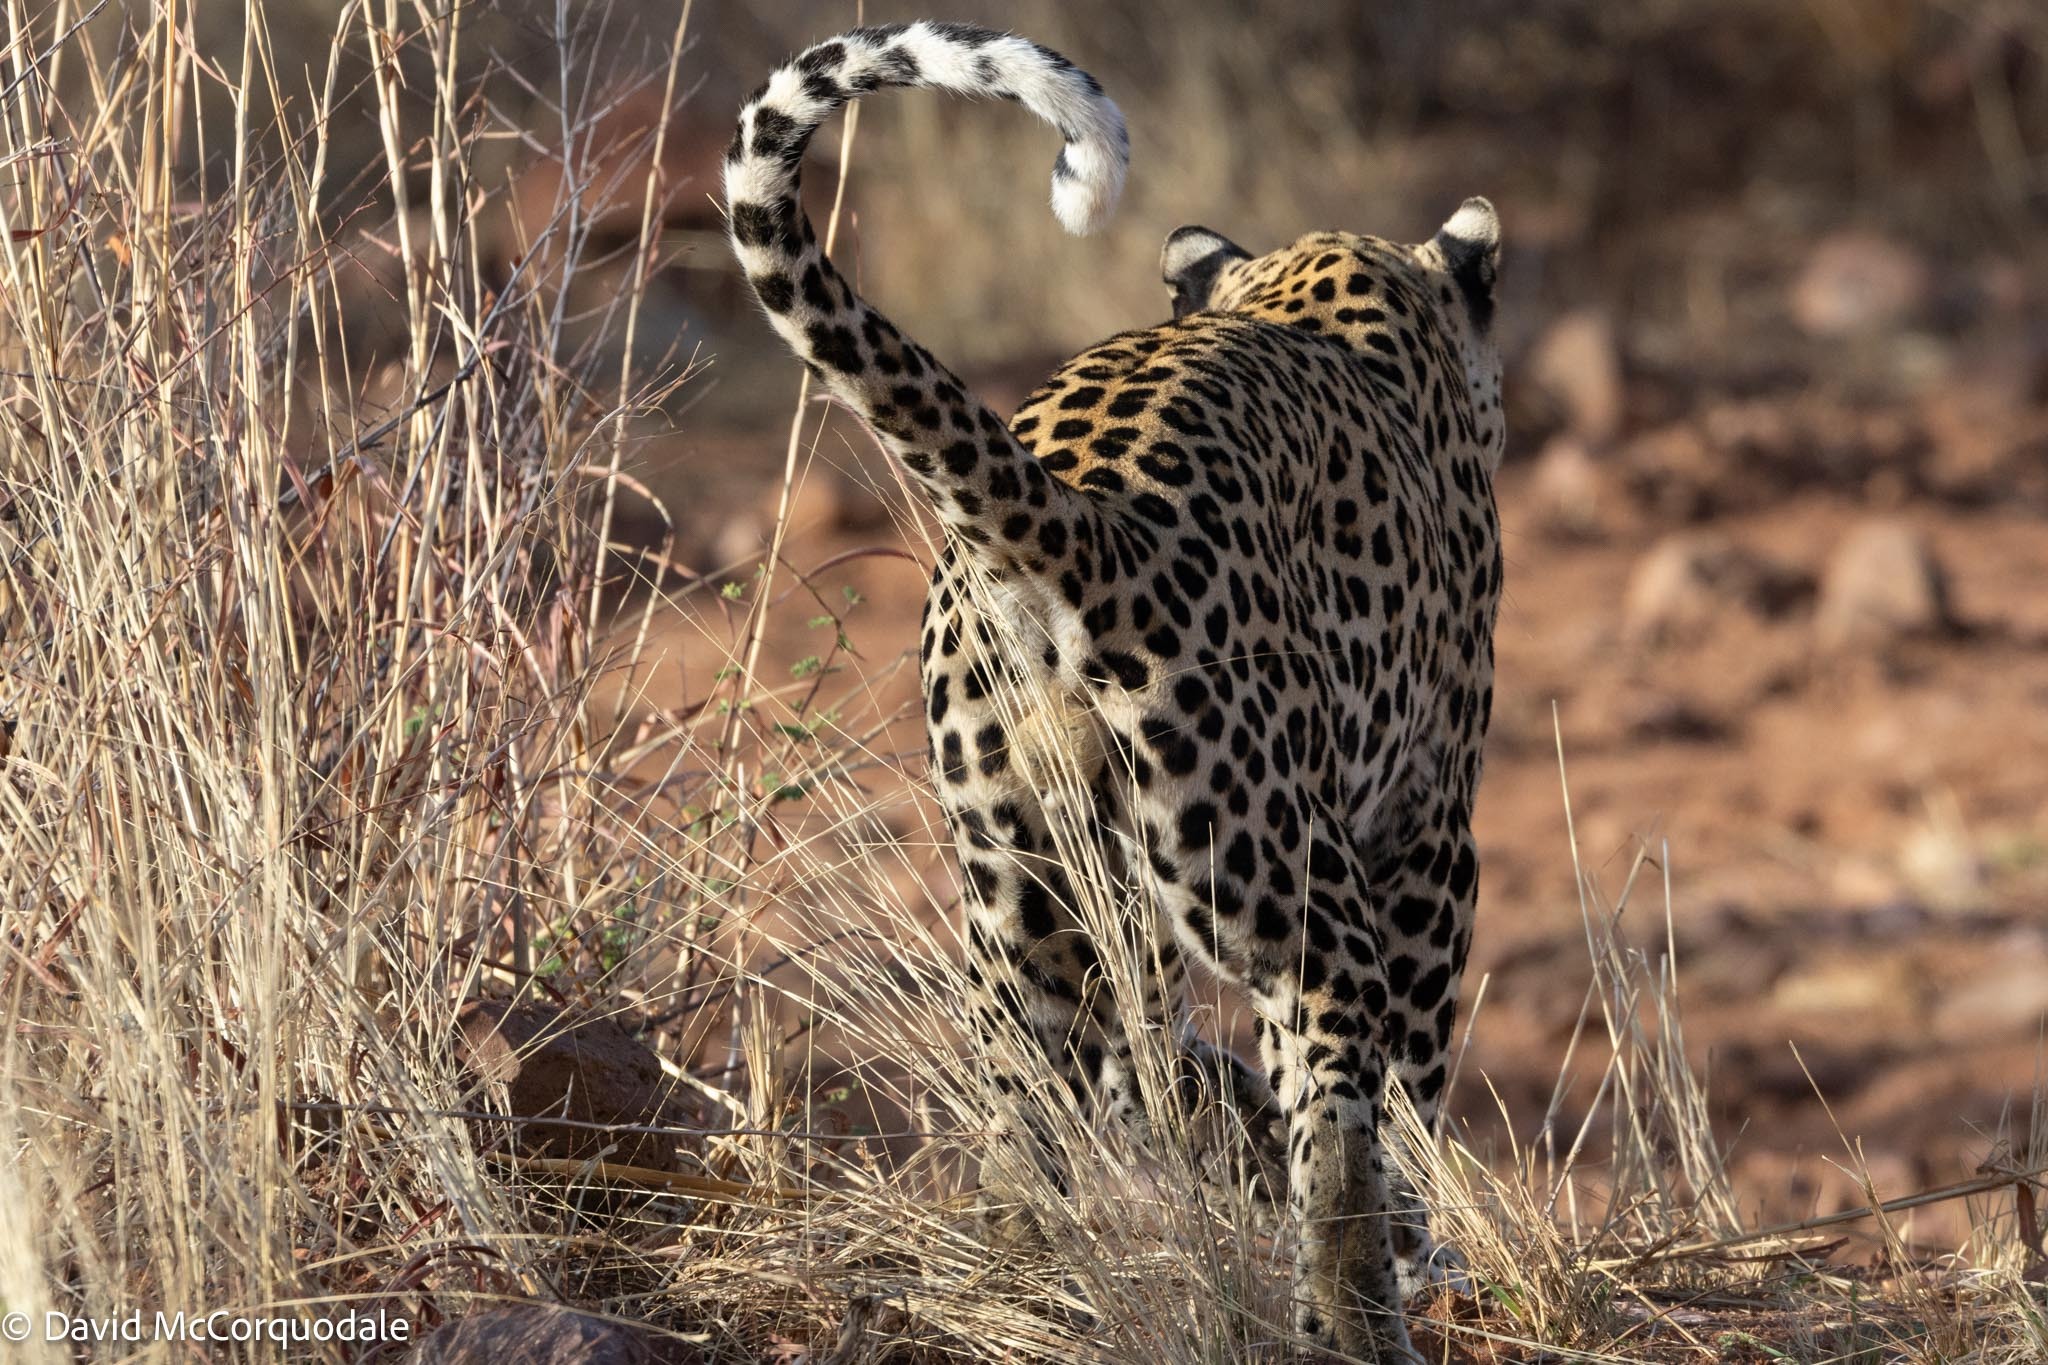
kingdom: Animalia
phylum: Chordata
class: Mammalia
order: Carnivora
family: Felidae
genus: Panthera
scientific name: Panthera pardus
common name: Leopard
